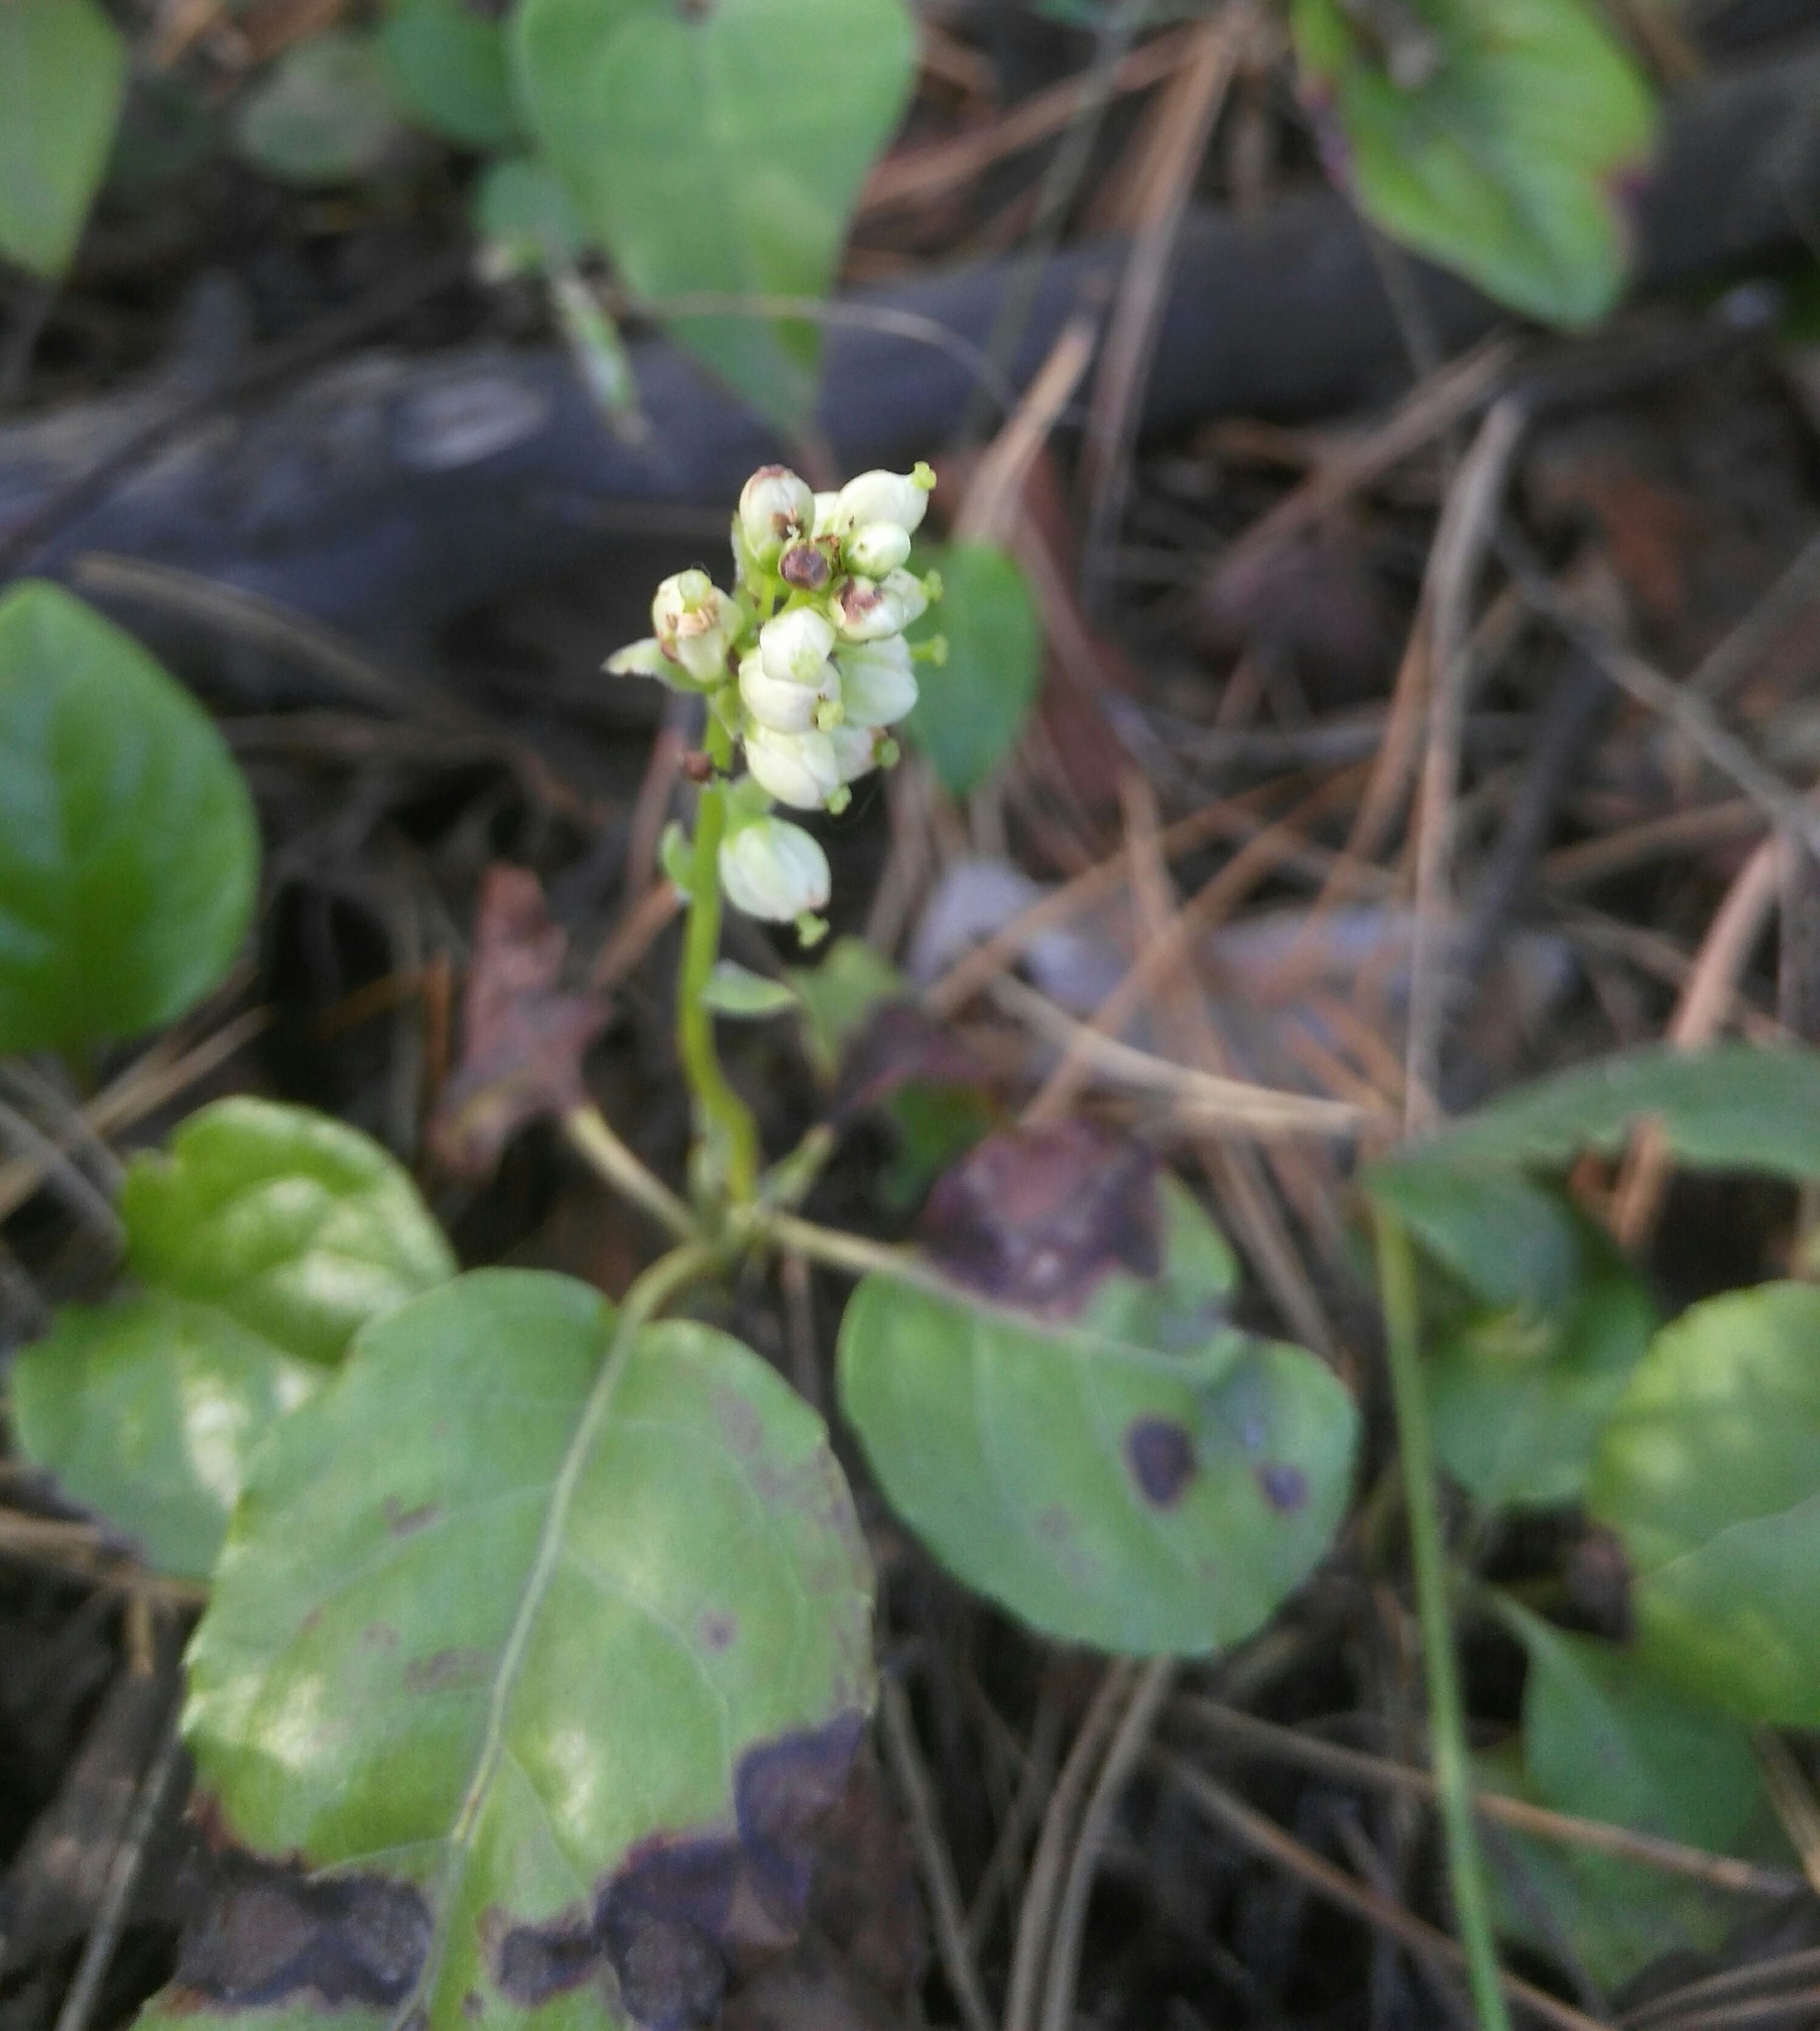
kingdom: Plantae
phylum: Tracheophyta
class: Magnoliopsida
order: Ericales
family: Ericaceae
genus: Orthilia
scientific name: Orthilia secunda
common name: One-sided orthilia
